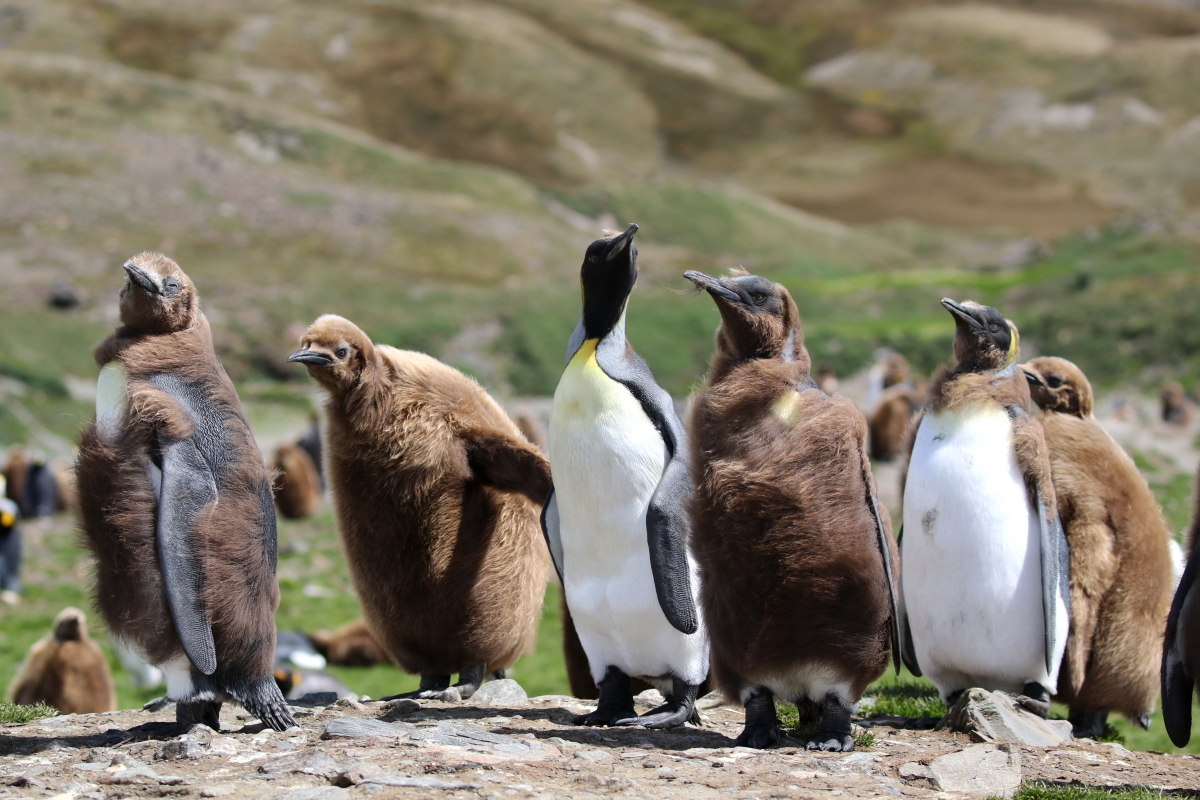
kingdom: Animalia
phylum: Chordata
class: Aves
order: Sphenisciformes
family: Spheniscidae
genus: Aptenodytes
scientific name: Aptenodytes patagonicus
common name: King penguin
